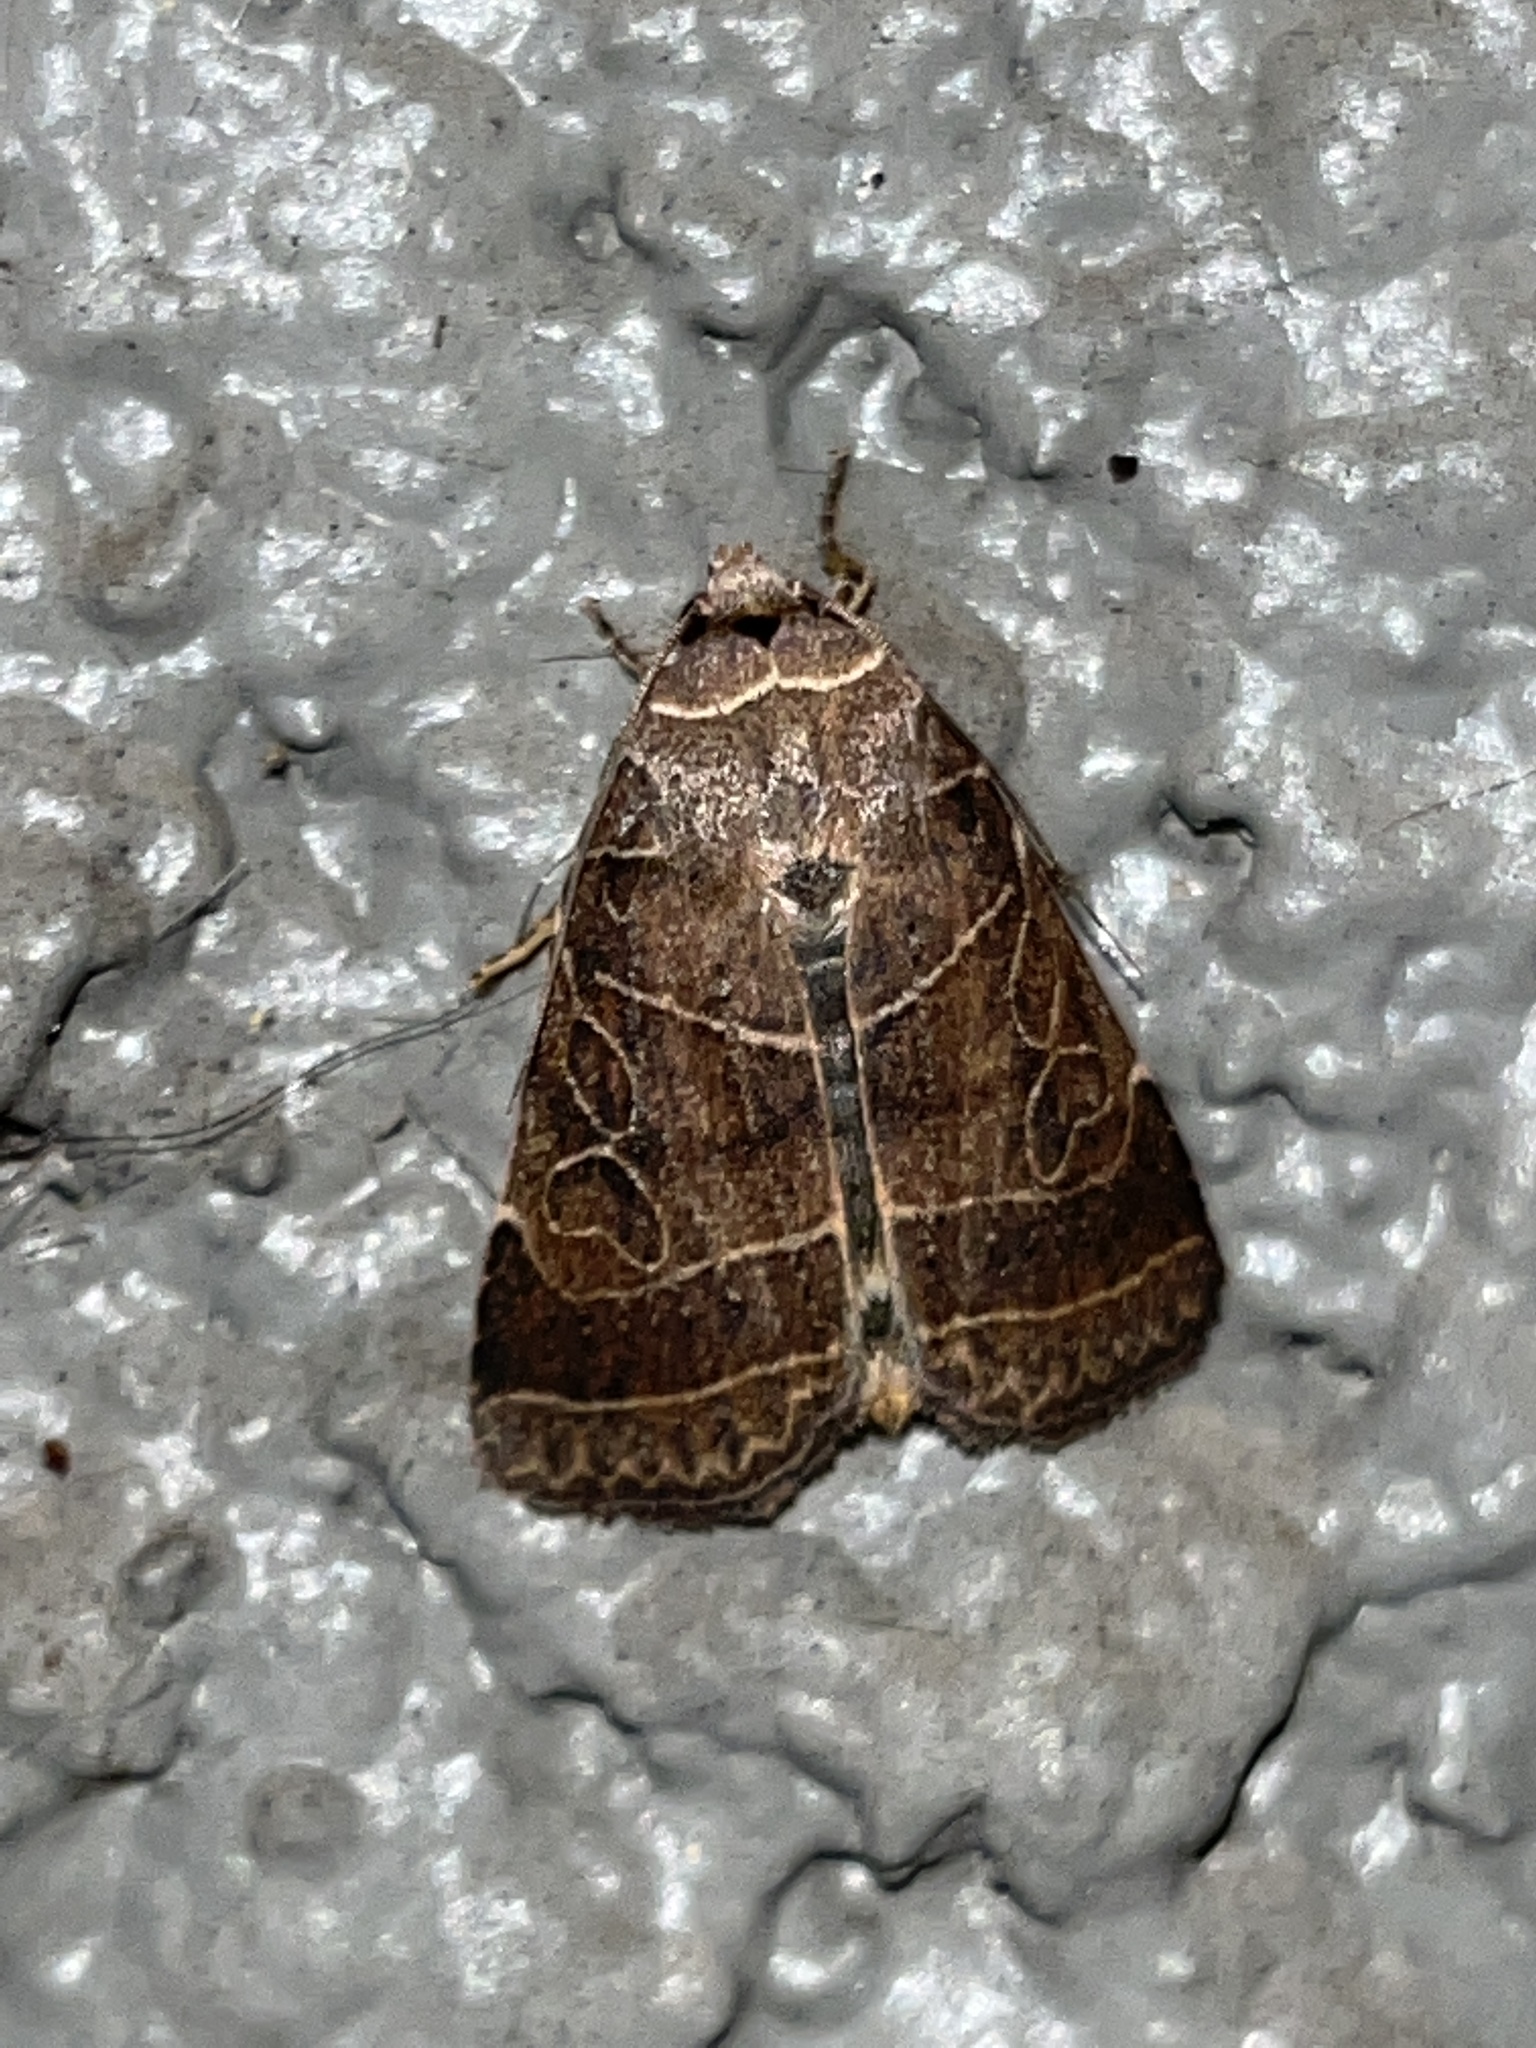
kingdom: Animalia
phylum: Arthropoda
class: Insecta
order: Lepidoptera
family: Noctuidae
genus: Orthodes
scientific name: Orthodes majuscula
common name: Rustic quaker
